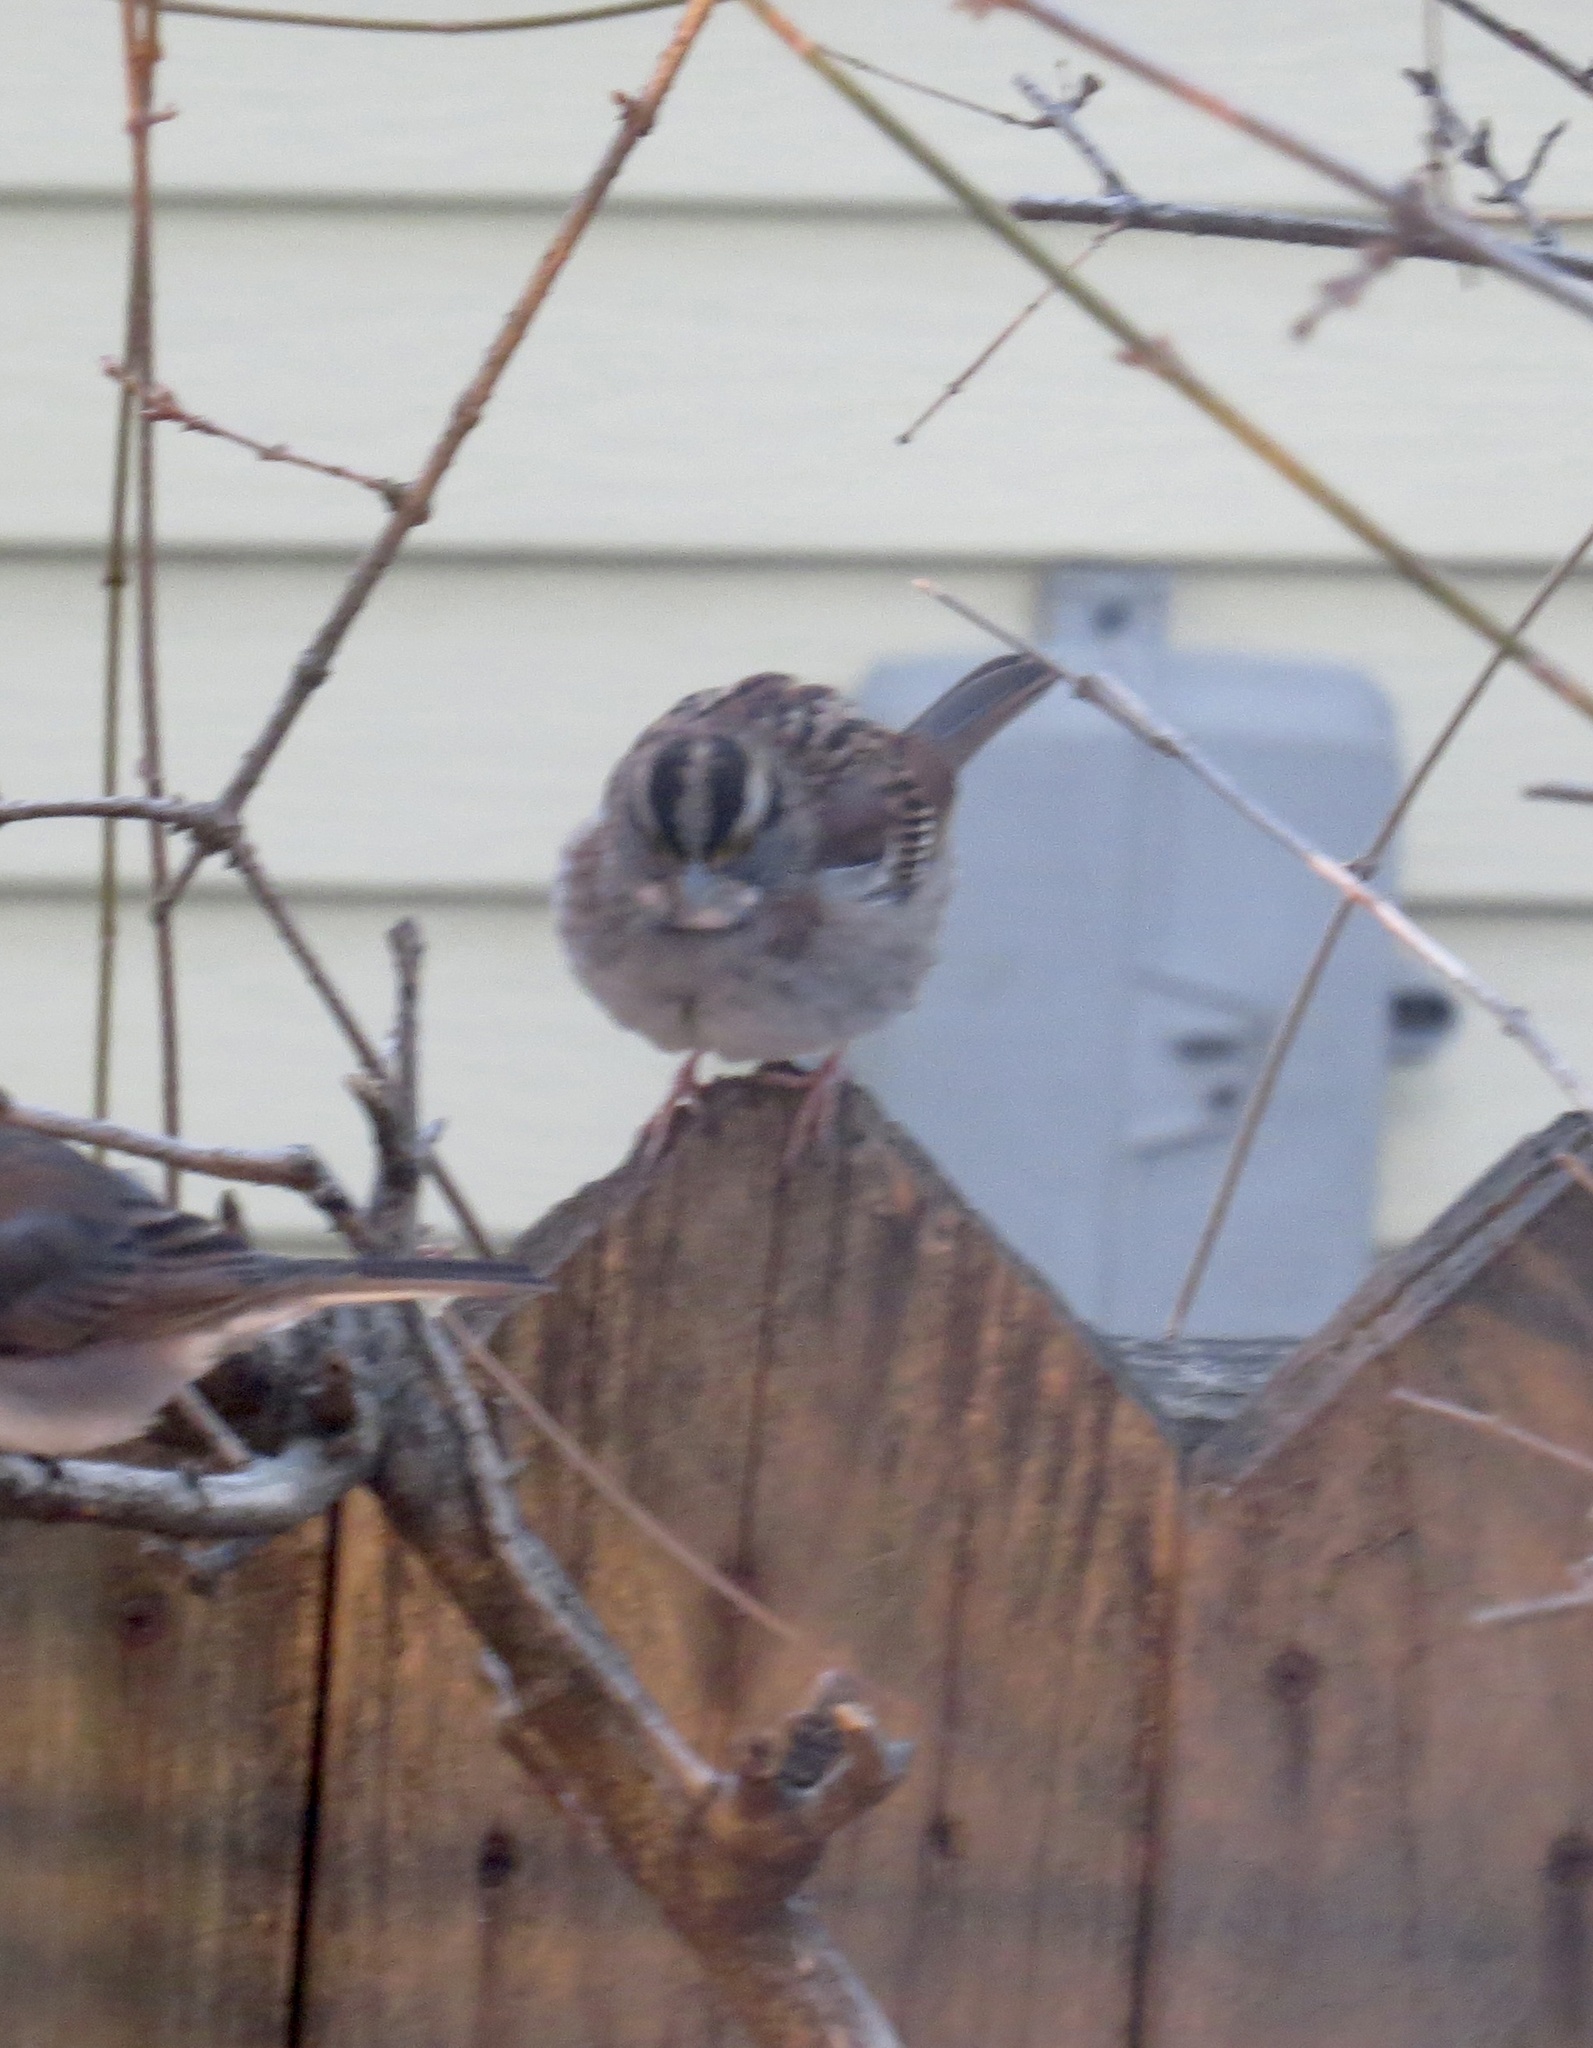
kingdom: Animalia
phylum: Chordata
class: Aves
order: Passeriformes
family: Passerellidae
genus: Zonotrichia
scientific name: Zonotrichia albicollis
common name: White-throated sparrow
